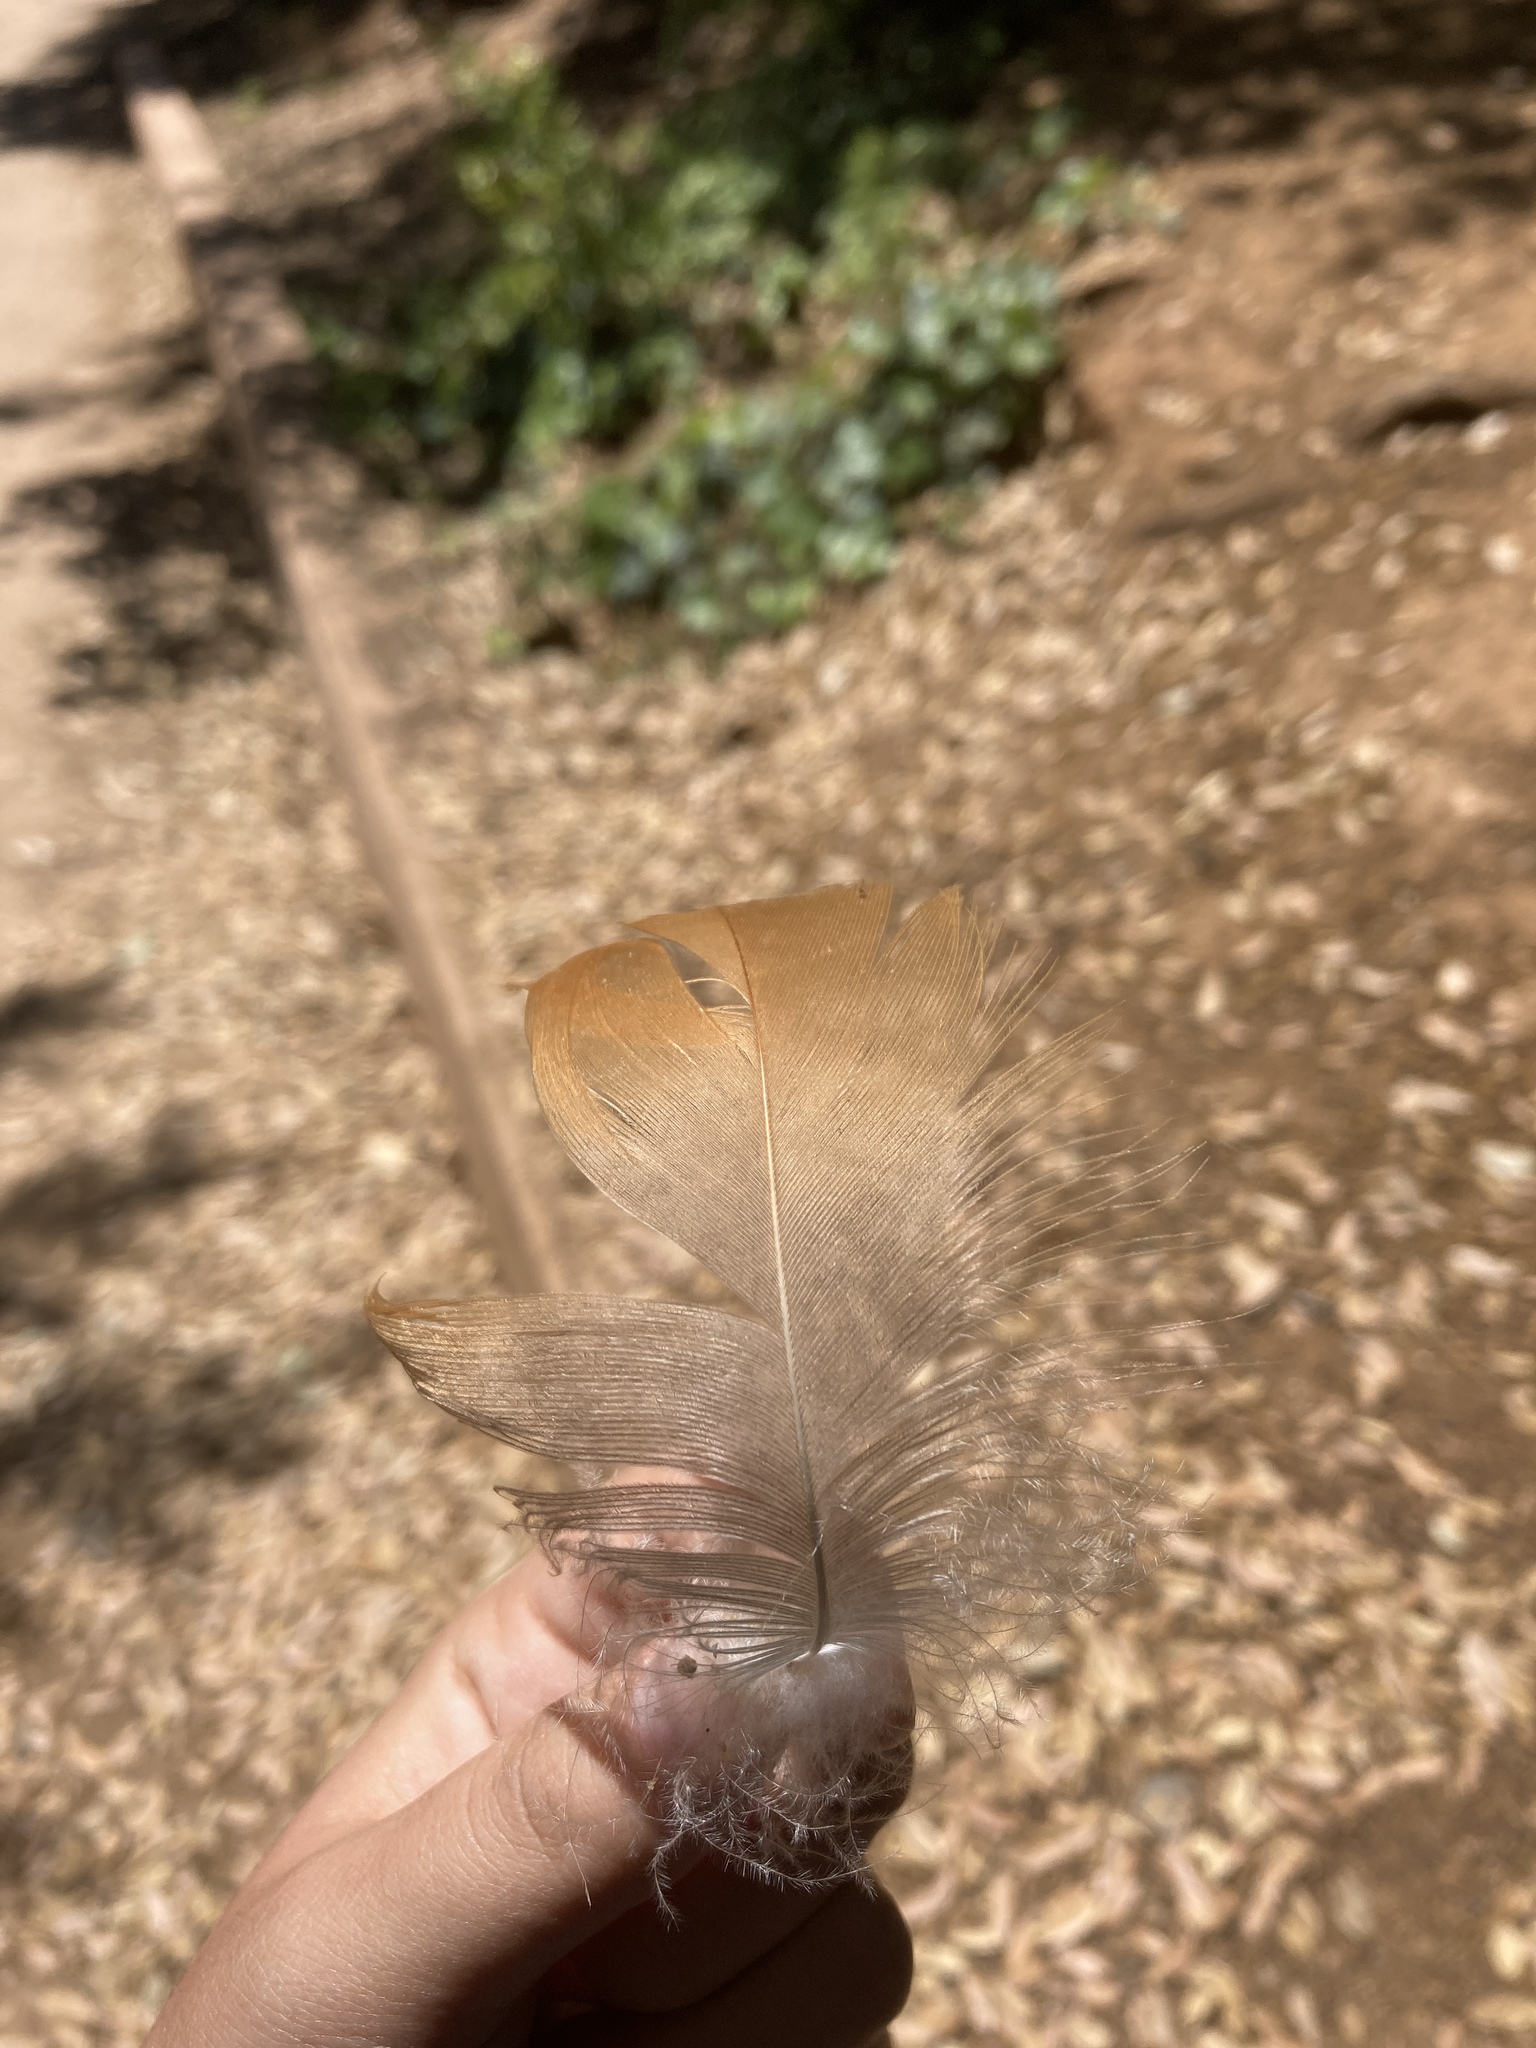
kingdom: Animalia
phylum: Chordata
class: Aves
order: Anseriformes
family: Anatidae
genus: Tadorna
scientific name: Tadorna ferruginea
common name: Ruddy shelduck
